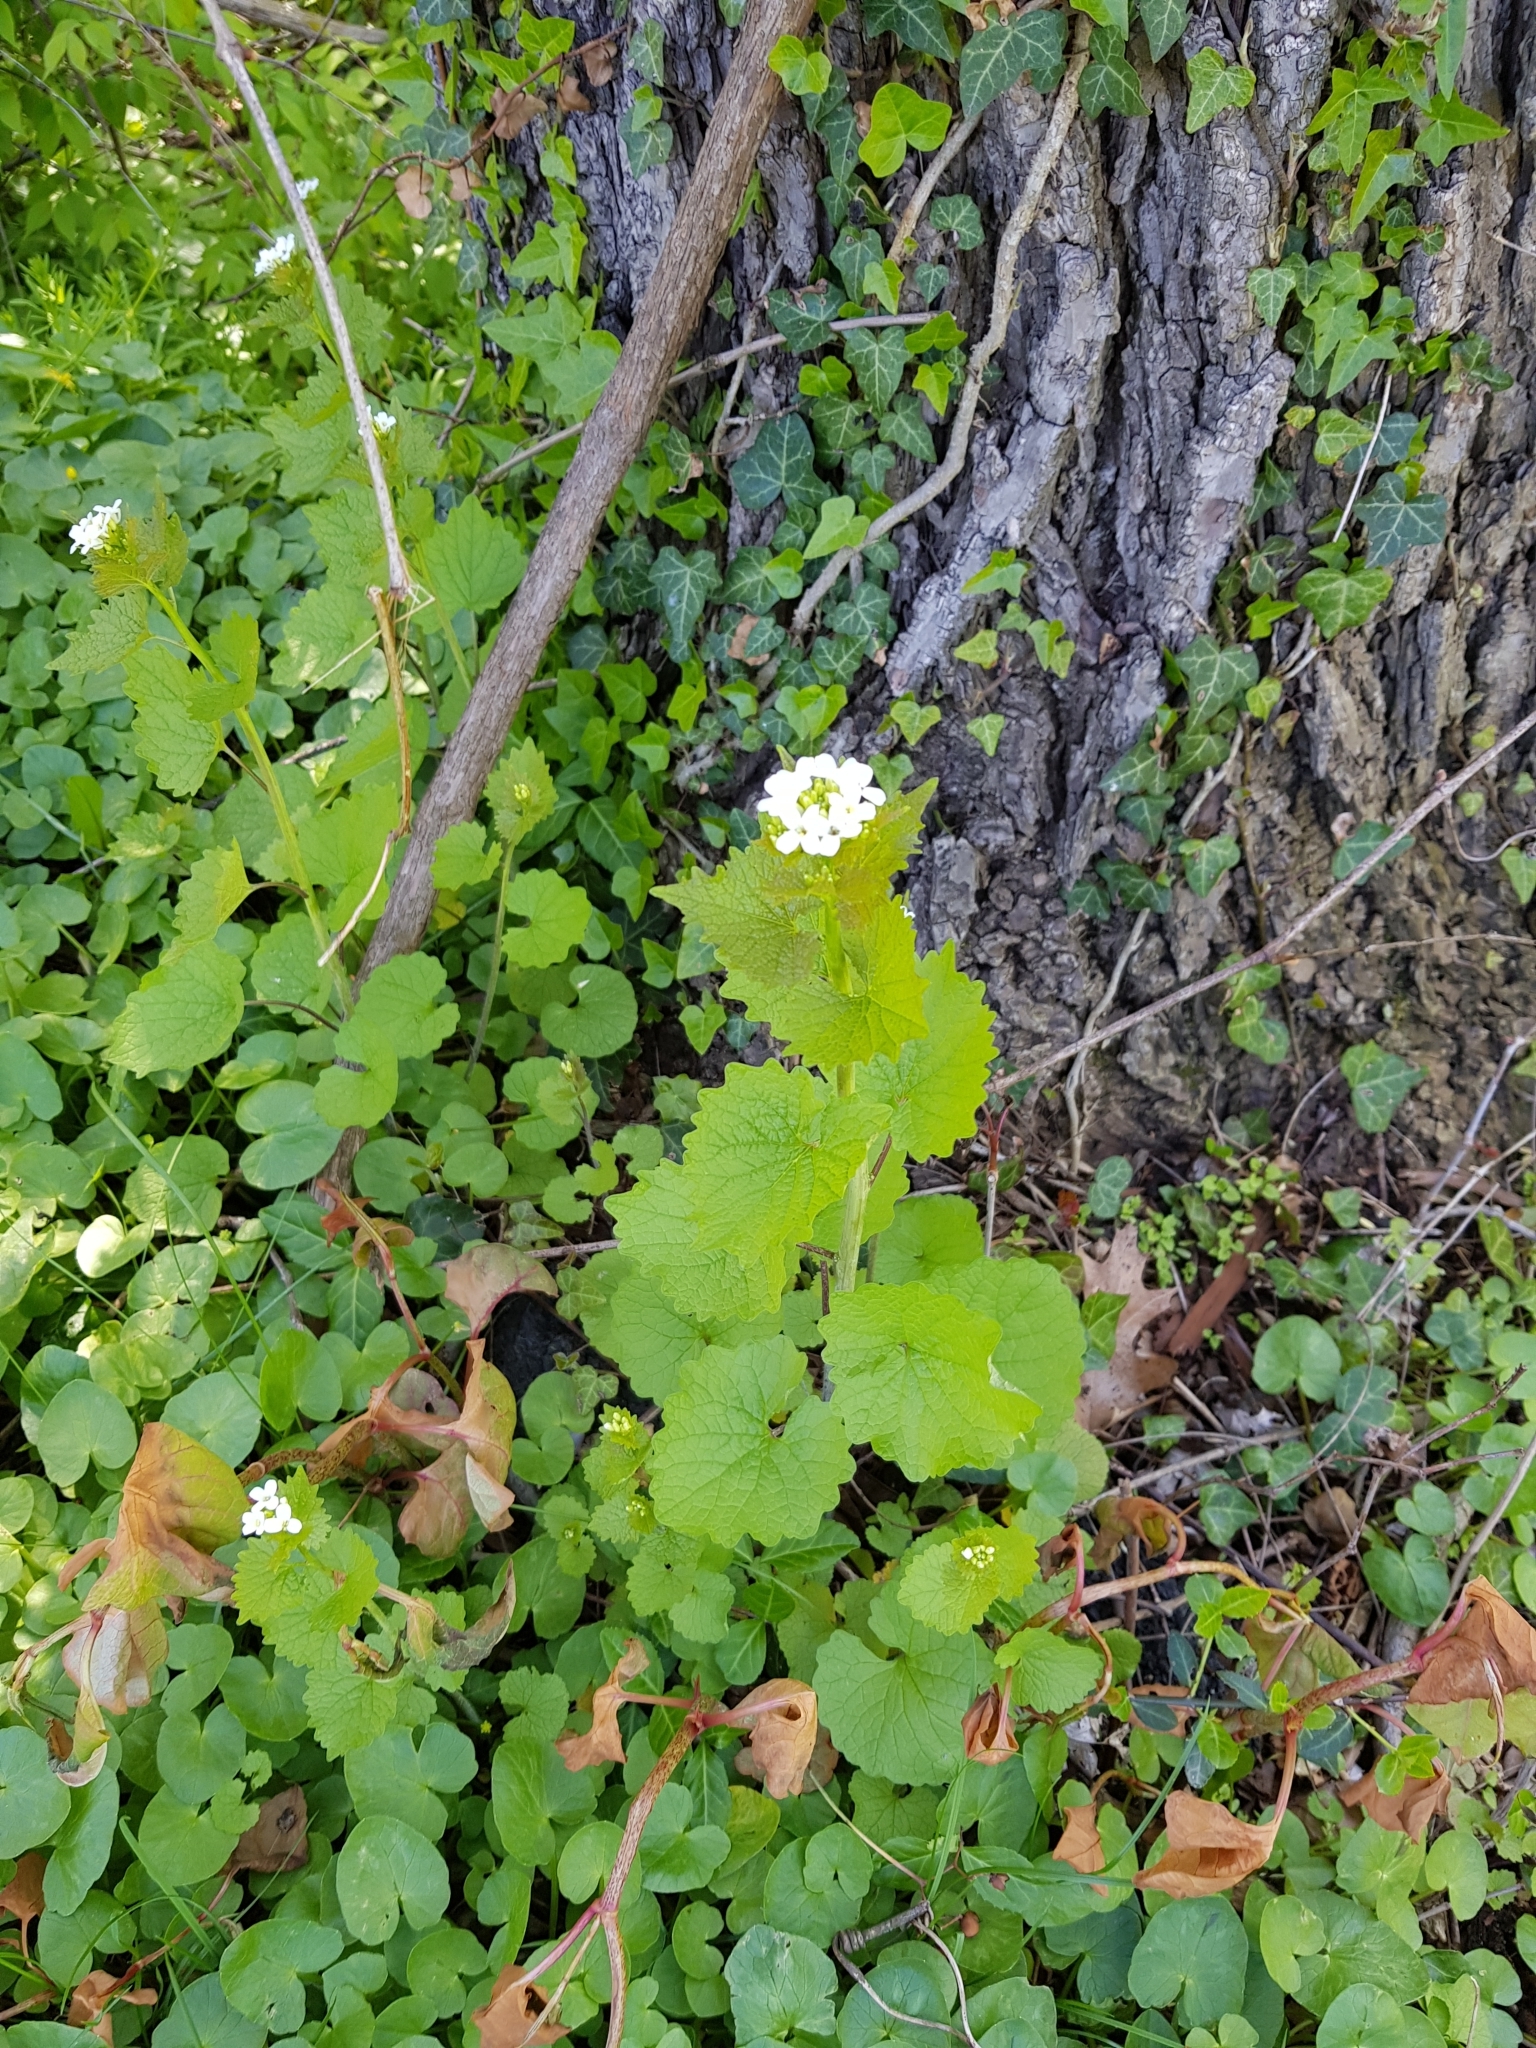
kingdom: Plantae
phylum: Tracheophyta
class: Magnoliopsida
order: Brassicales
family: Brassicaceae
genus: Alliaria
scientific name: Alliaria petiolata
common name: Garlic mustard
